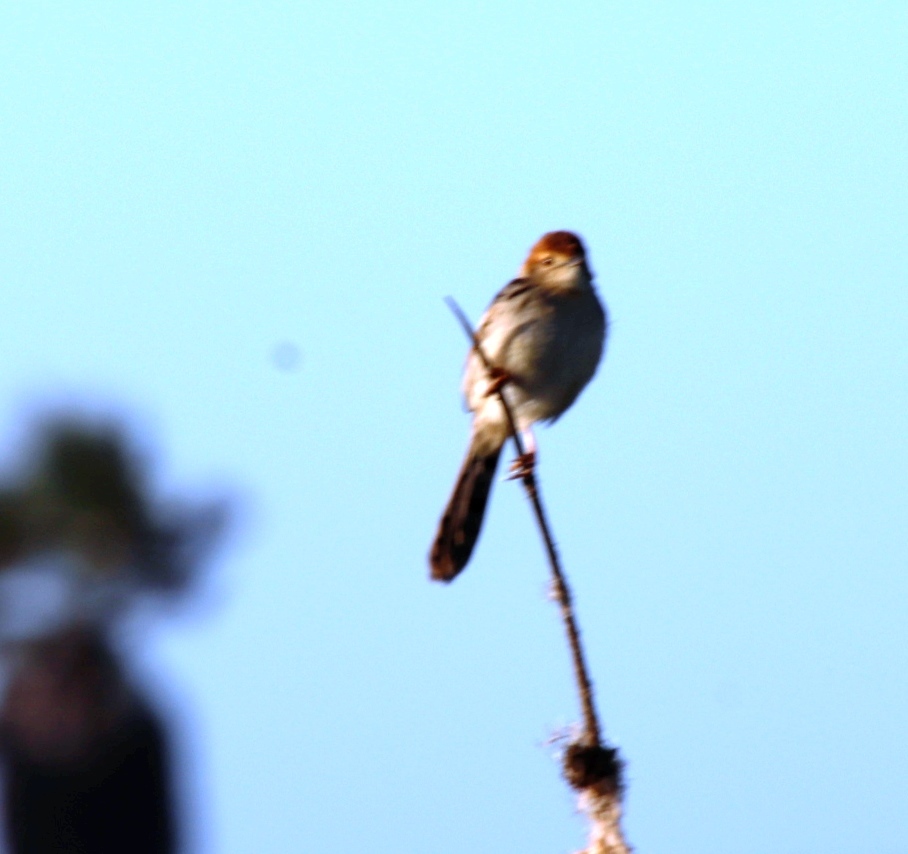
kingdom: Animalia
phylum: Chordata
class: Aves
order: Passeriformes
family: Cisticolidae
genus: Cisticola
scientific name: Cisticola tinniens
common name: Levaillant's cisticola
